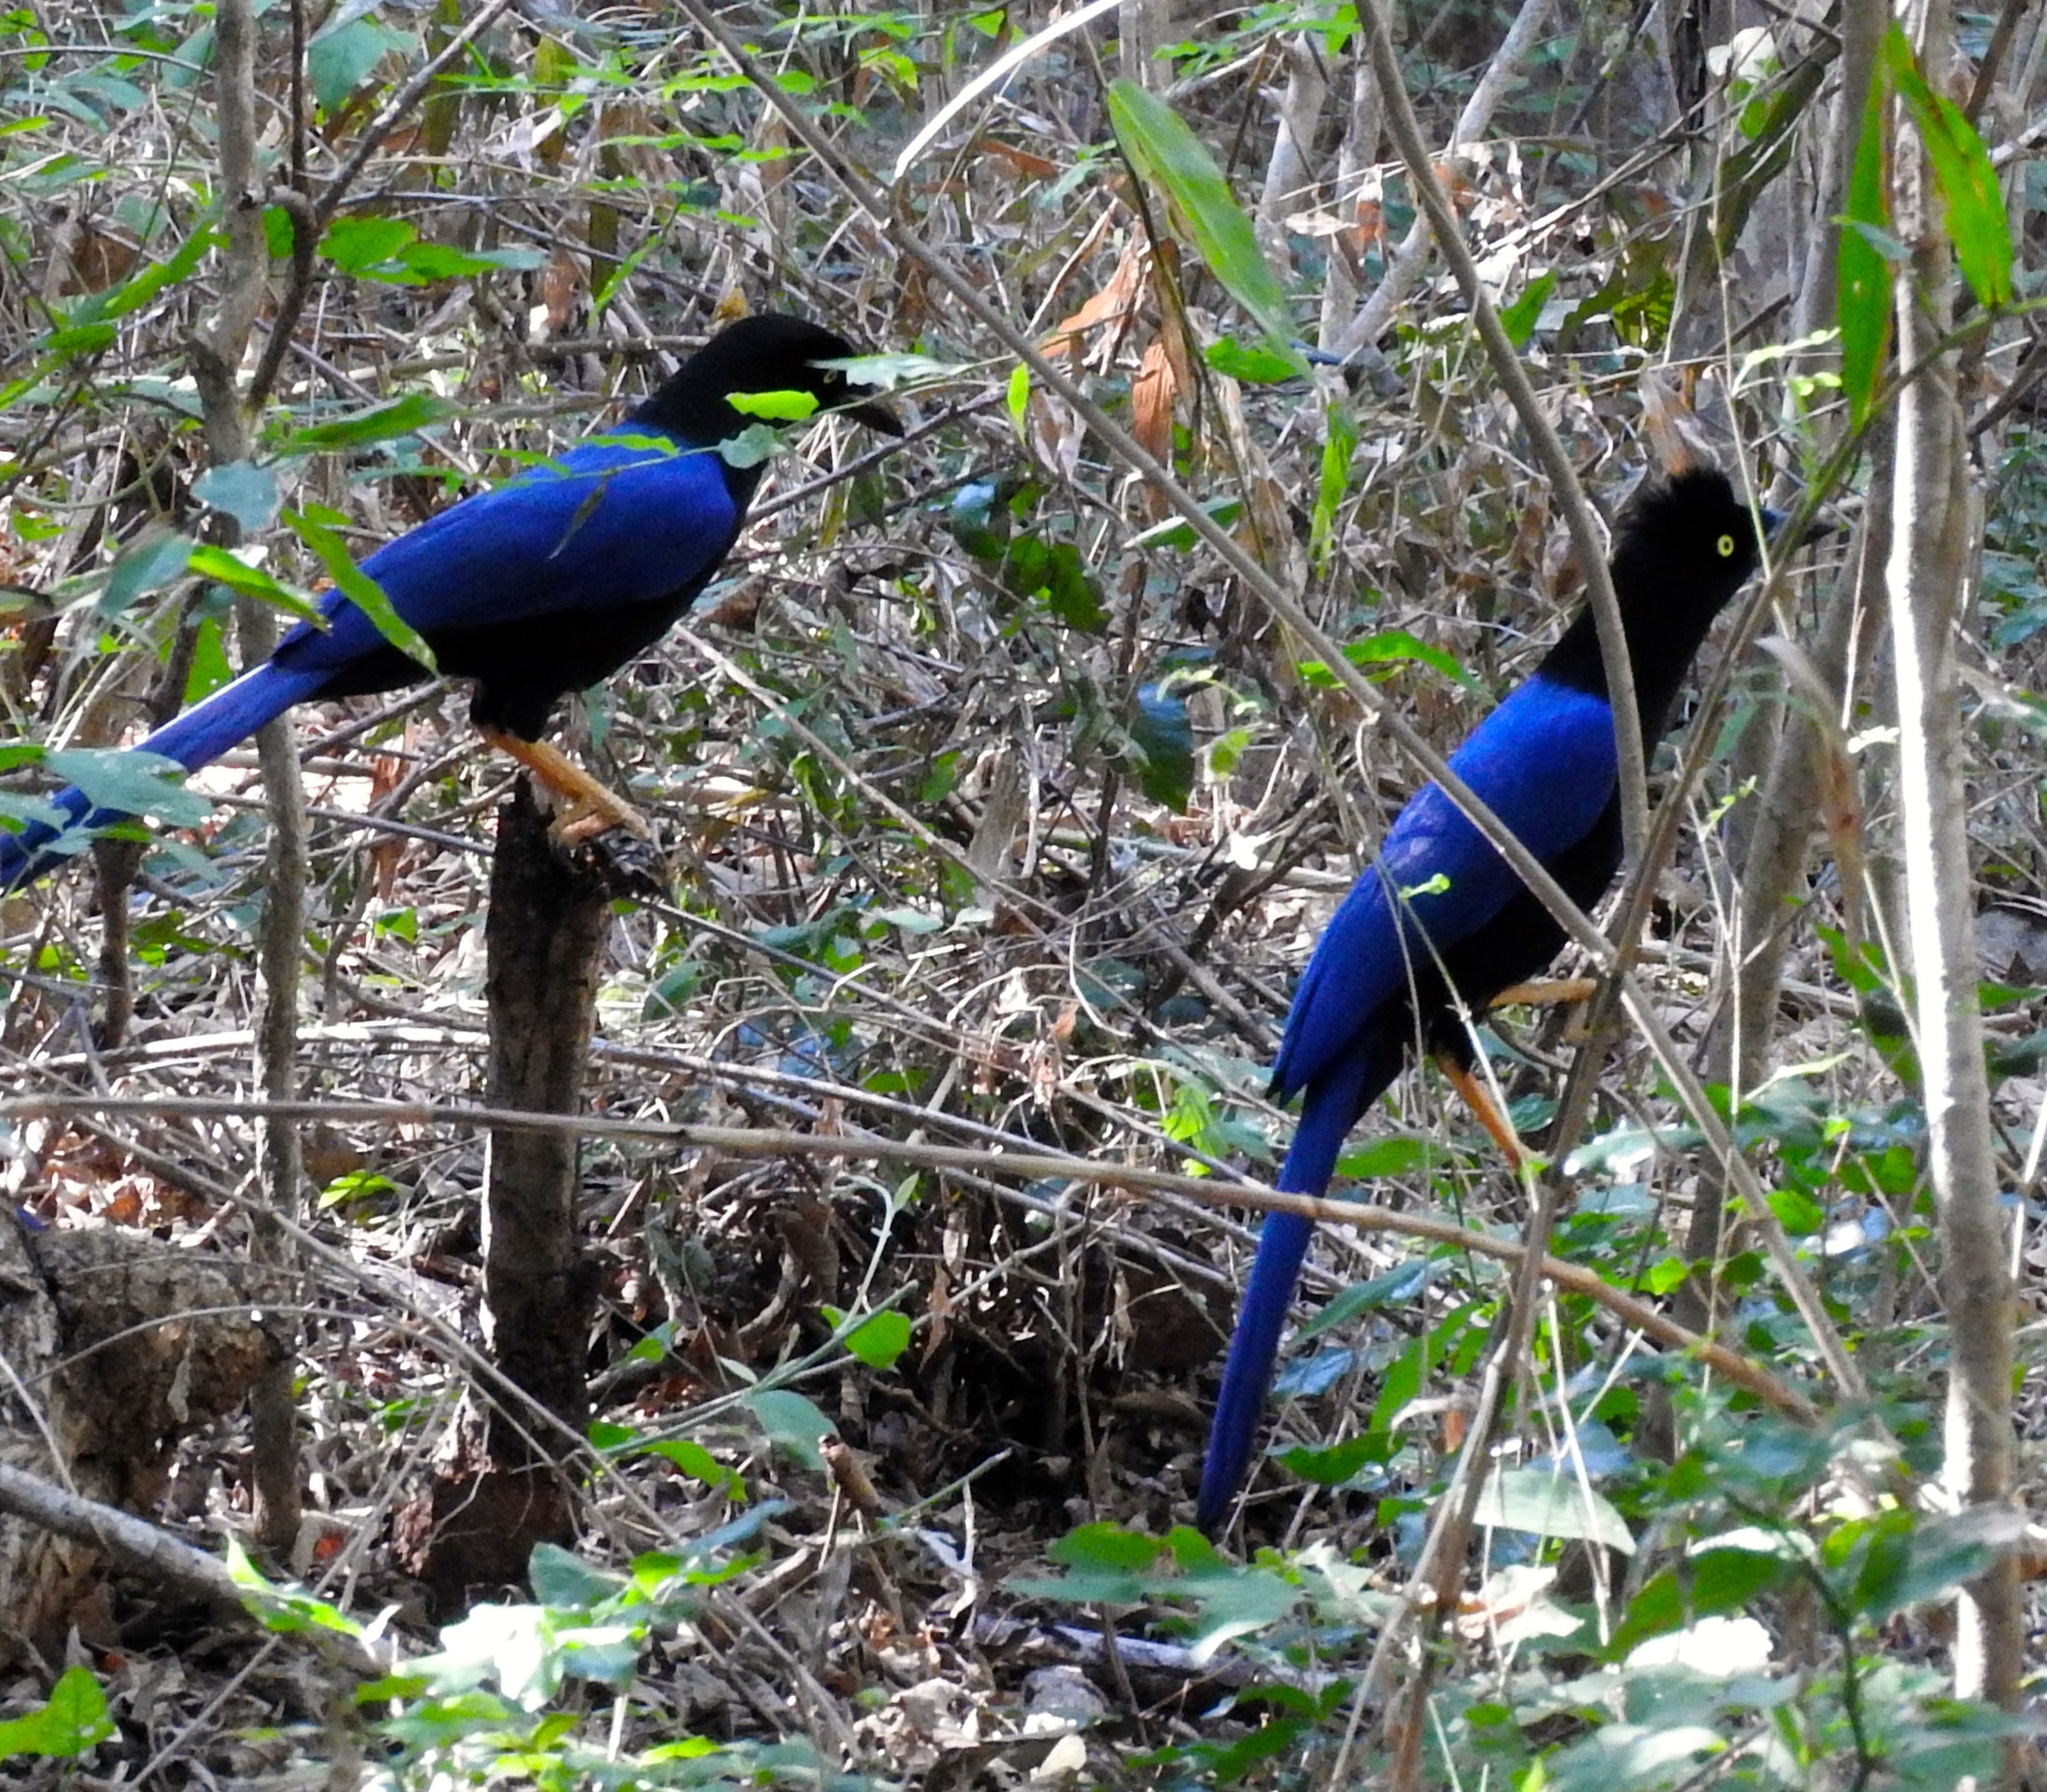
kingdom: Animalia
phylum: Chordata
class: Aves
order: Passeriformes
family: Corvidae
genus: Cyanocorax
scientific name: Cyanocorax beecheii
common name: Purplish-backed jay
